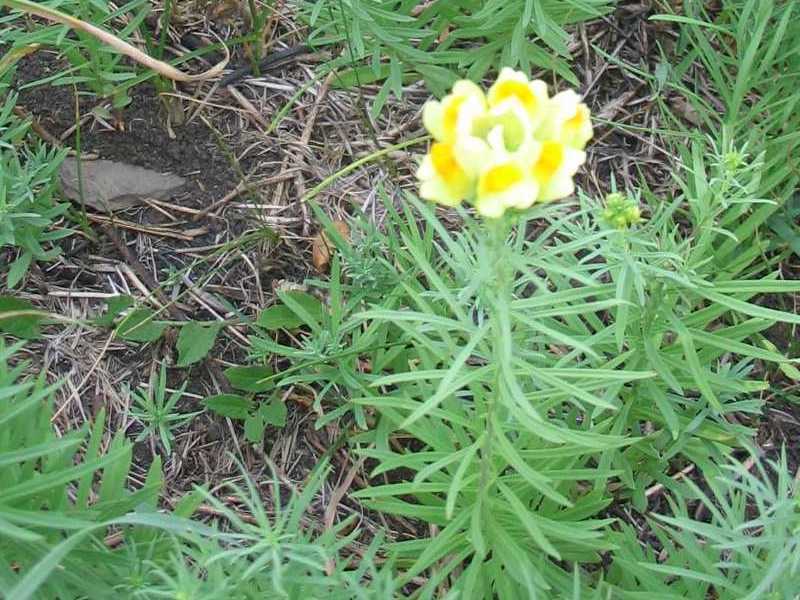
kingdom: Plantae
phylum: Tracheophyta
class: Magnoliopsida
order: Lamiales
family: Plantaginaceae
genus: Linaria
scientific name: Linaria vulgaris
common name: Butter and eggs
